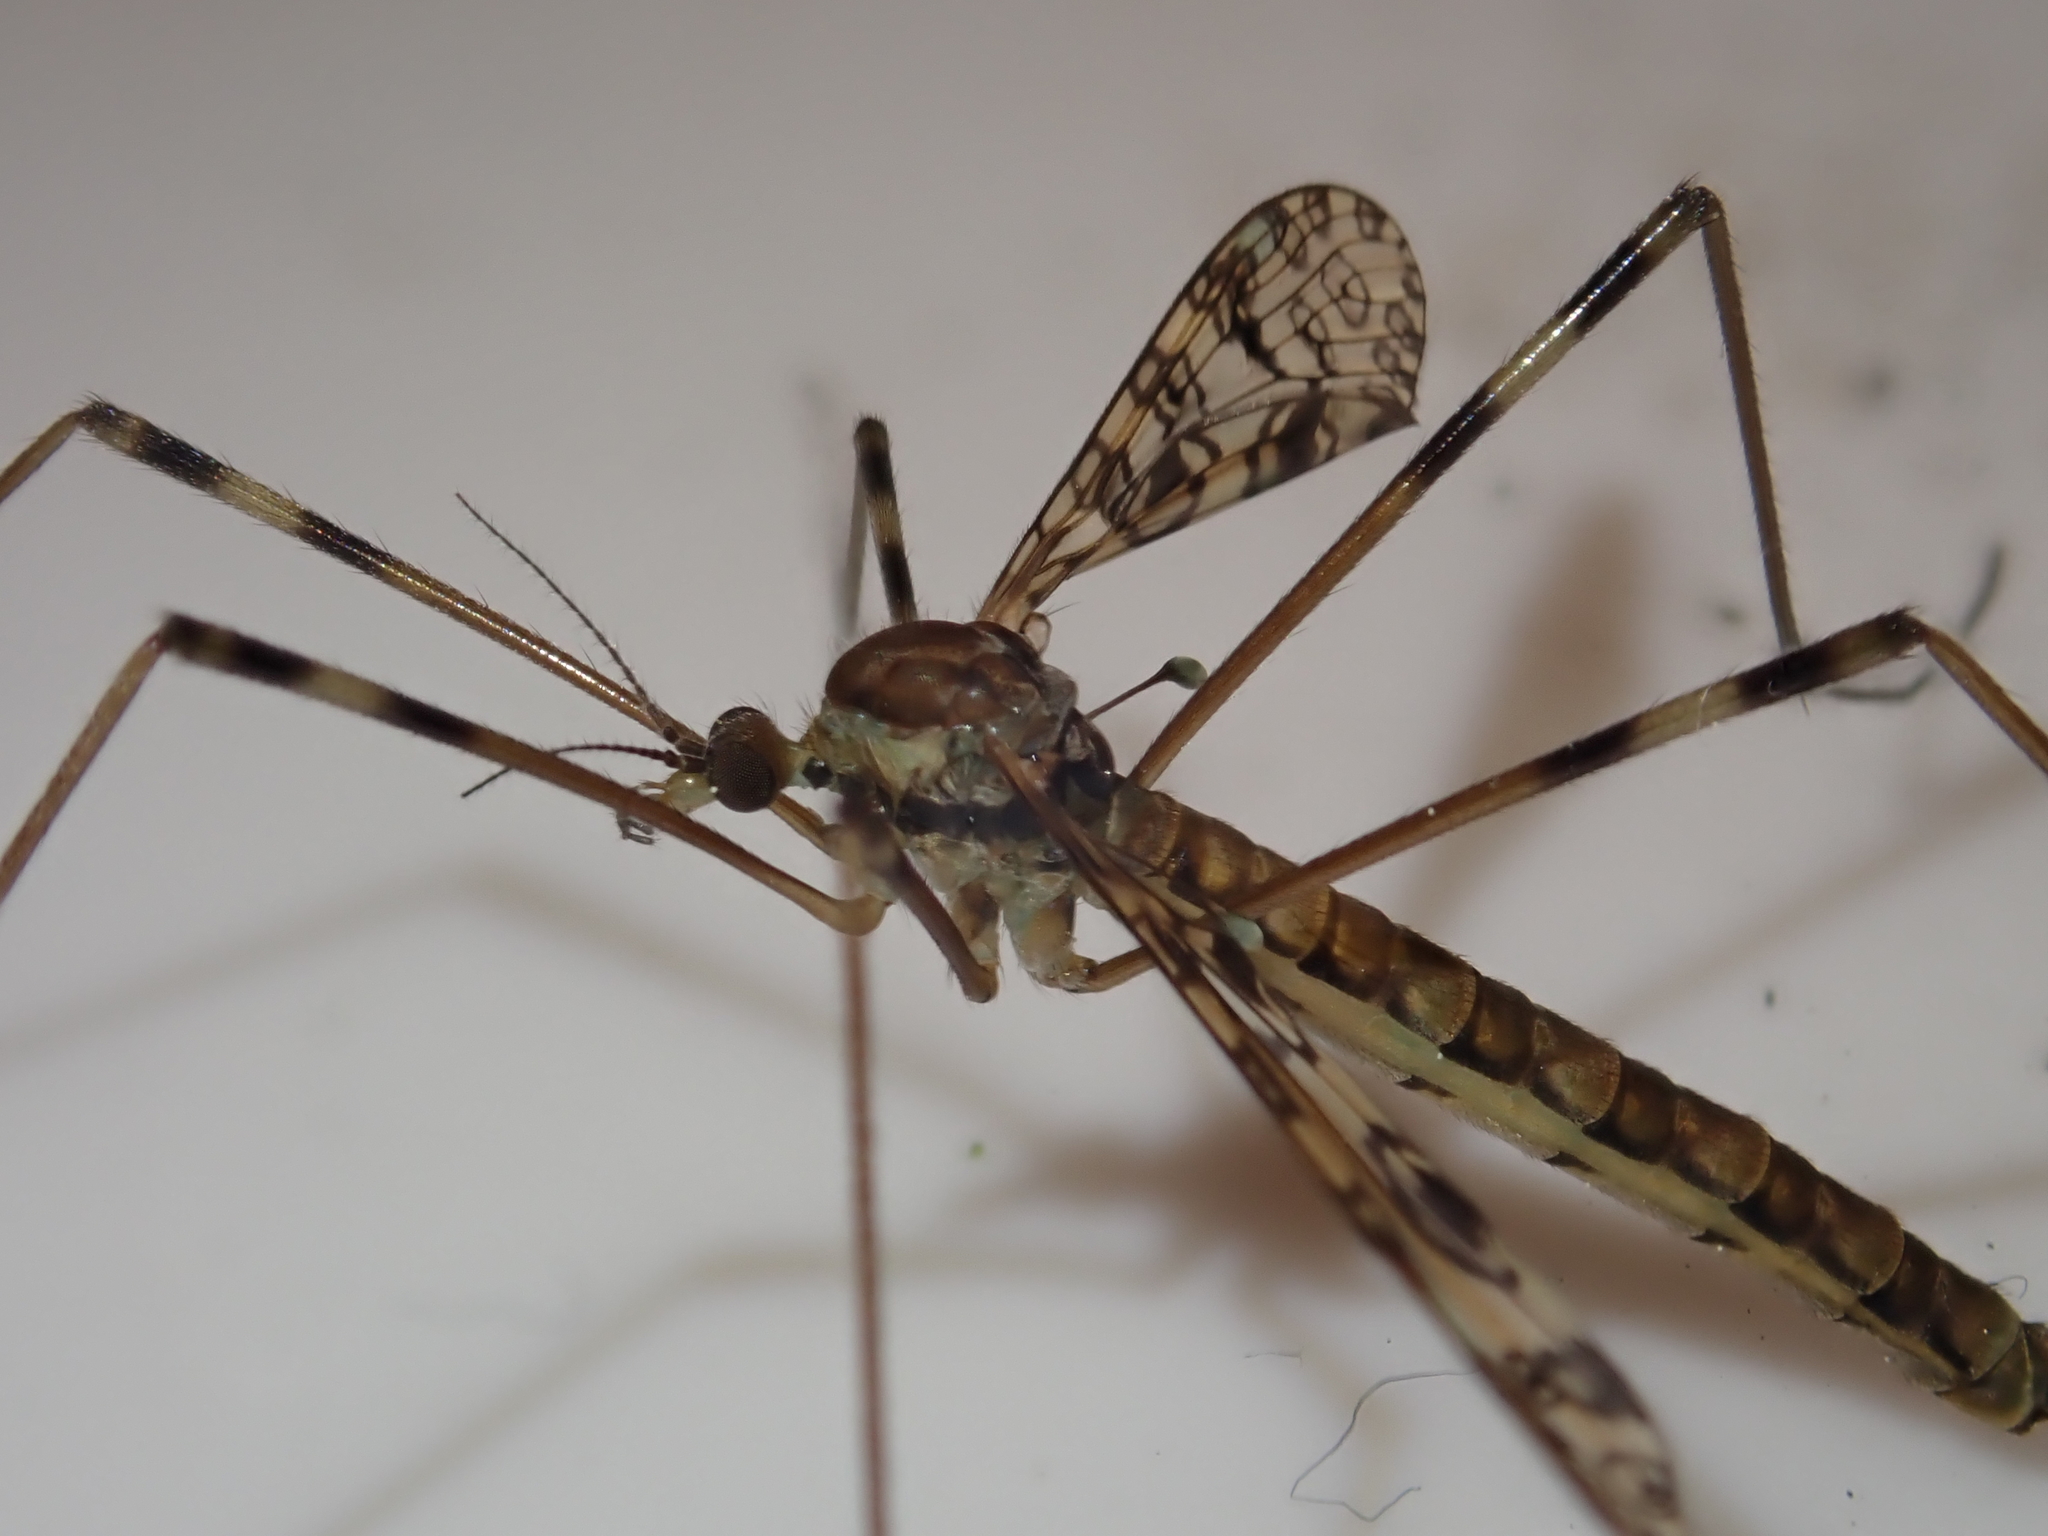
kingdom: Animalia
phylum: Arthropoda
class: Insecta
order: Diptera
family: Limoniidae
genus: Austrolimnophila
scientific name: Austrolimnophila argus
